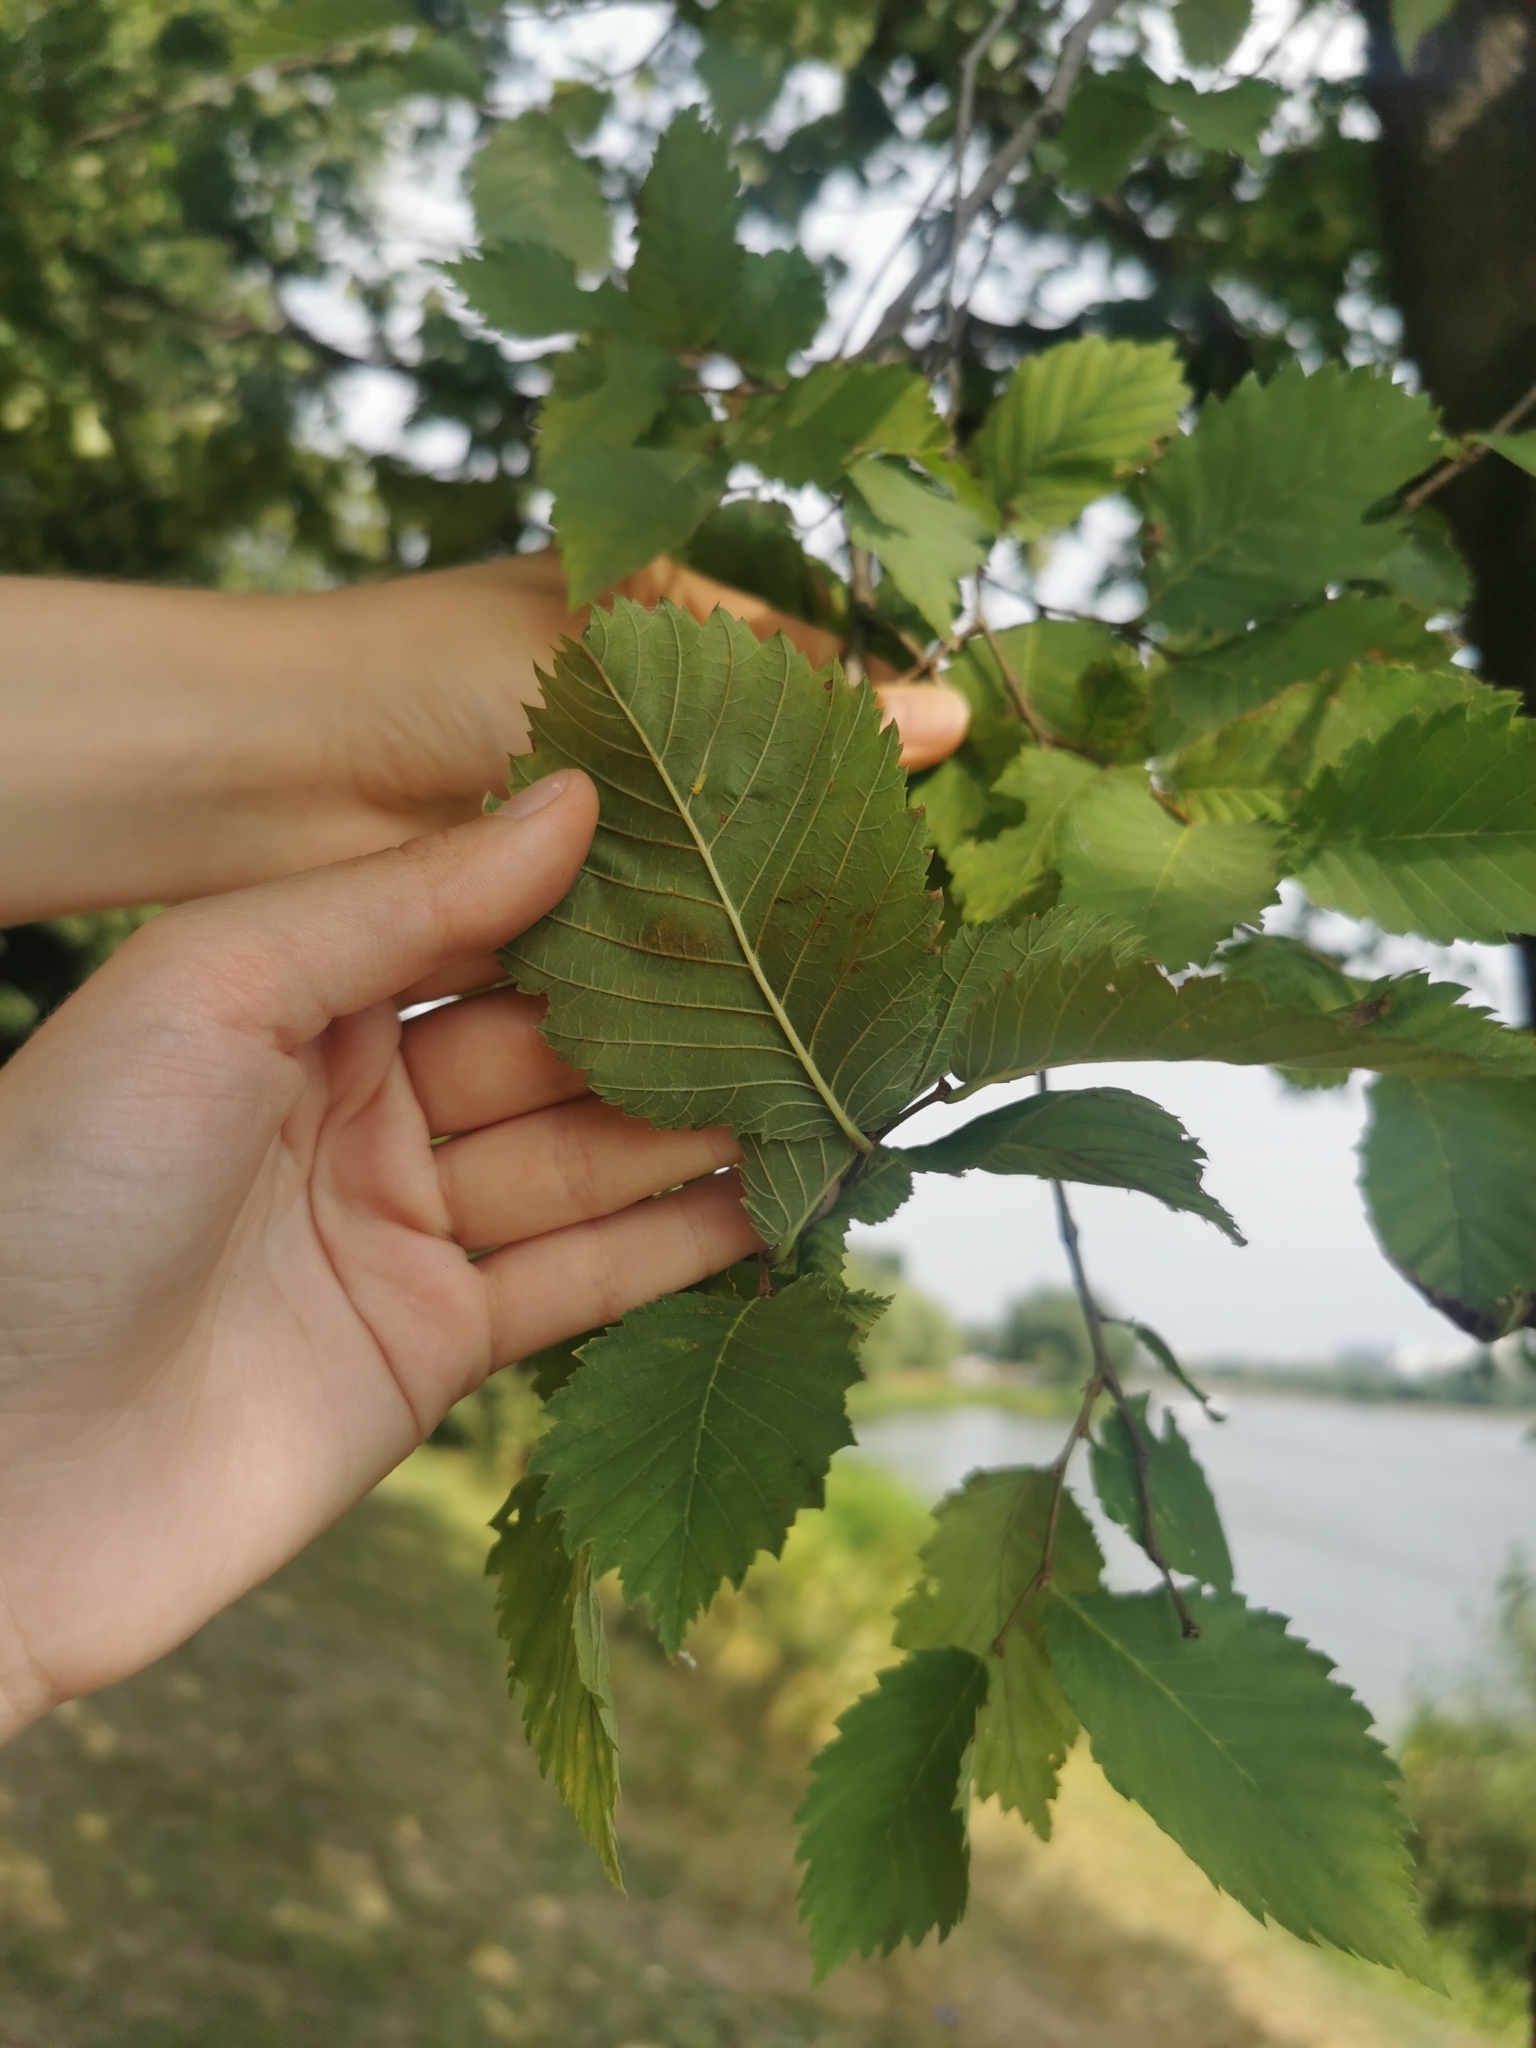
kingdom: Plantae
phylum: Tracheophyta
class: Magnoliopsida
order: Rosales
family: Ulmaceae
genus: Ulmus
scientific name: Ulmus laevis
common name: European white-elm
